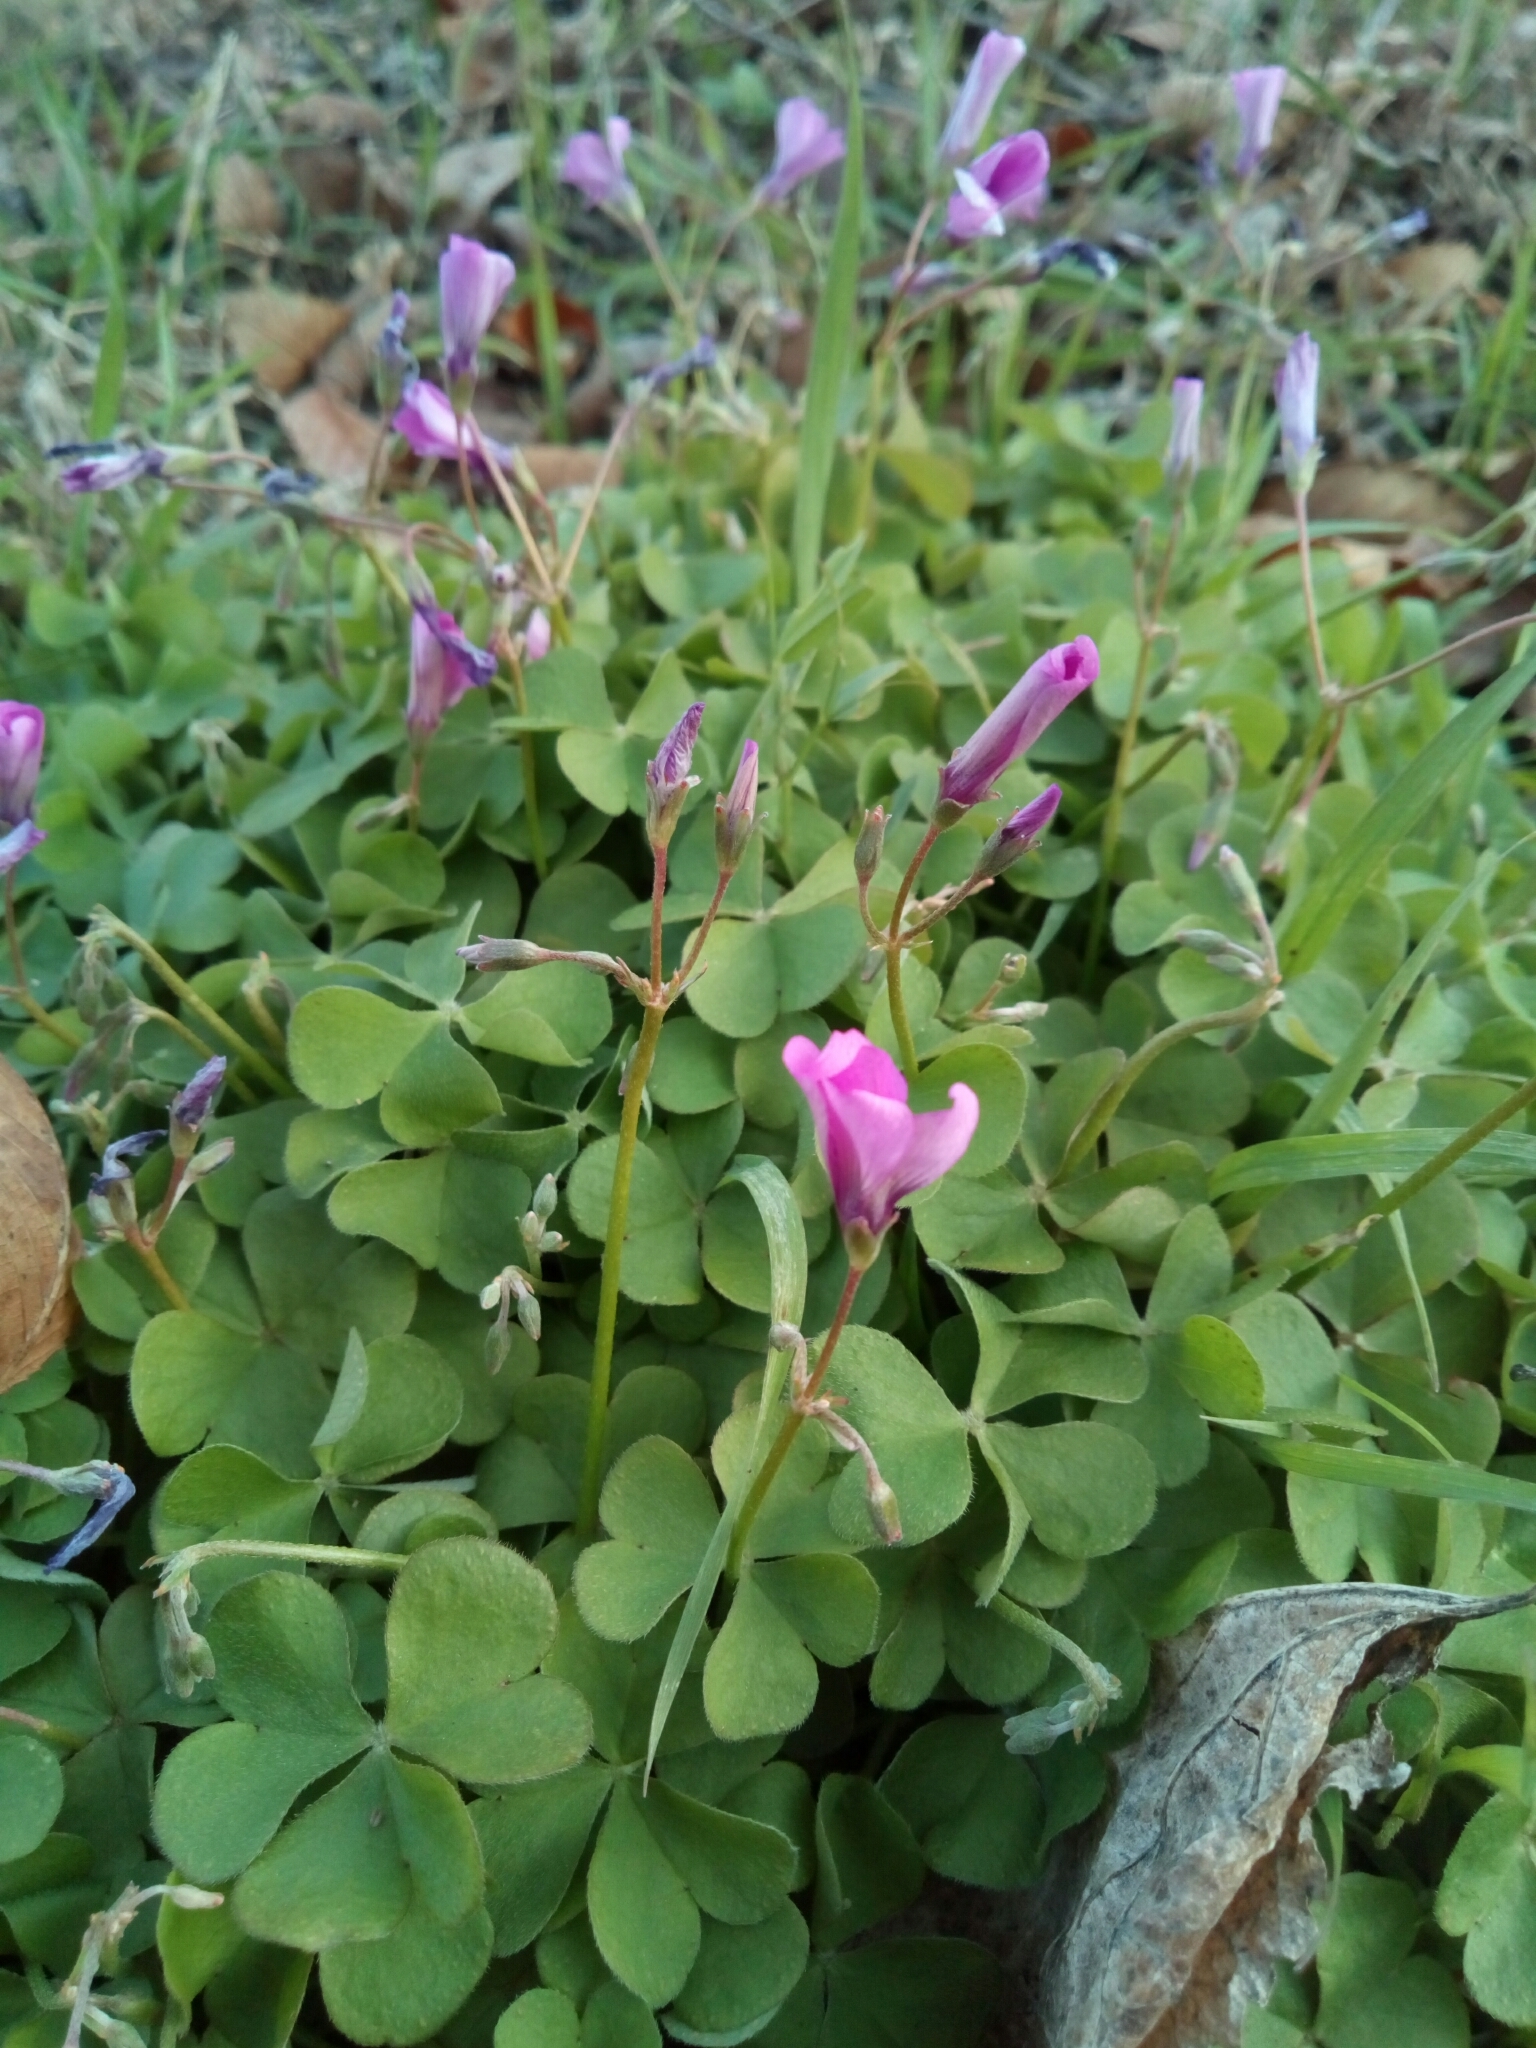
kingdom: Plantae
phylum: Tracheophyta
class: Magnoliopsida
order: Oxalidales
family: Oxalidaceae
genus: Oxalis
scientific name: Oxalis articulata
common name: Pink-sorrel
